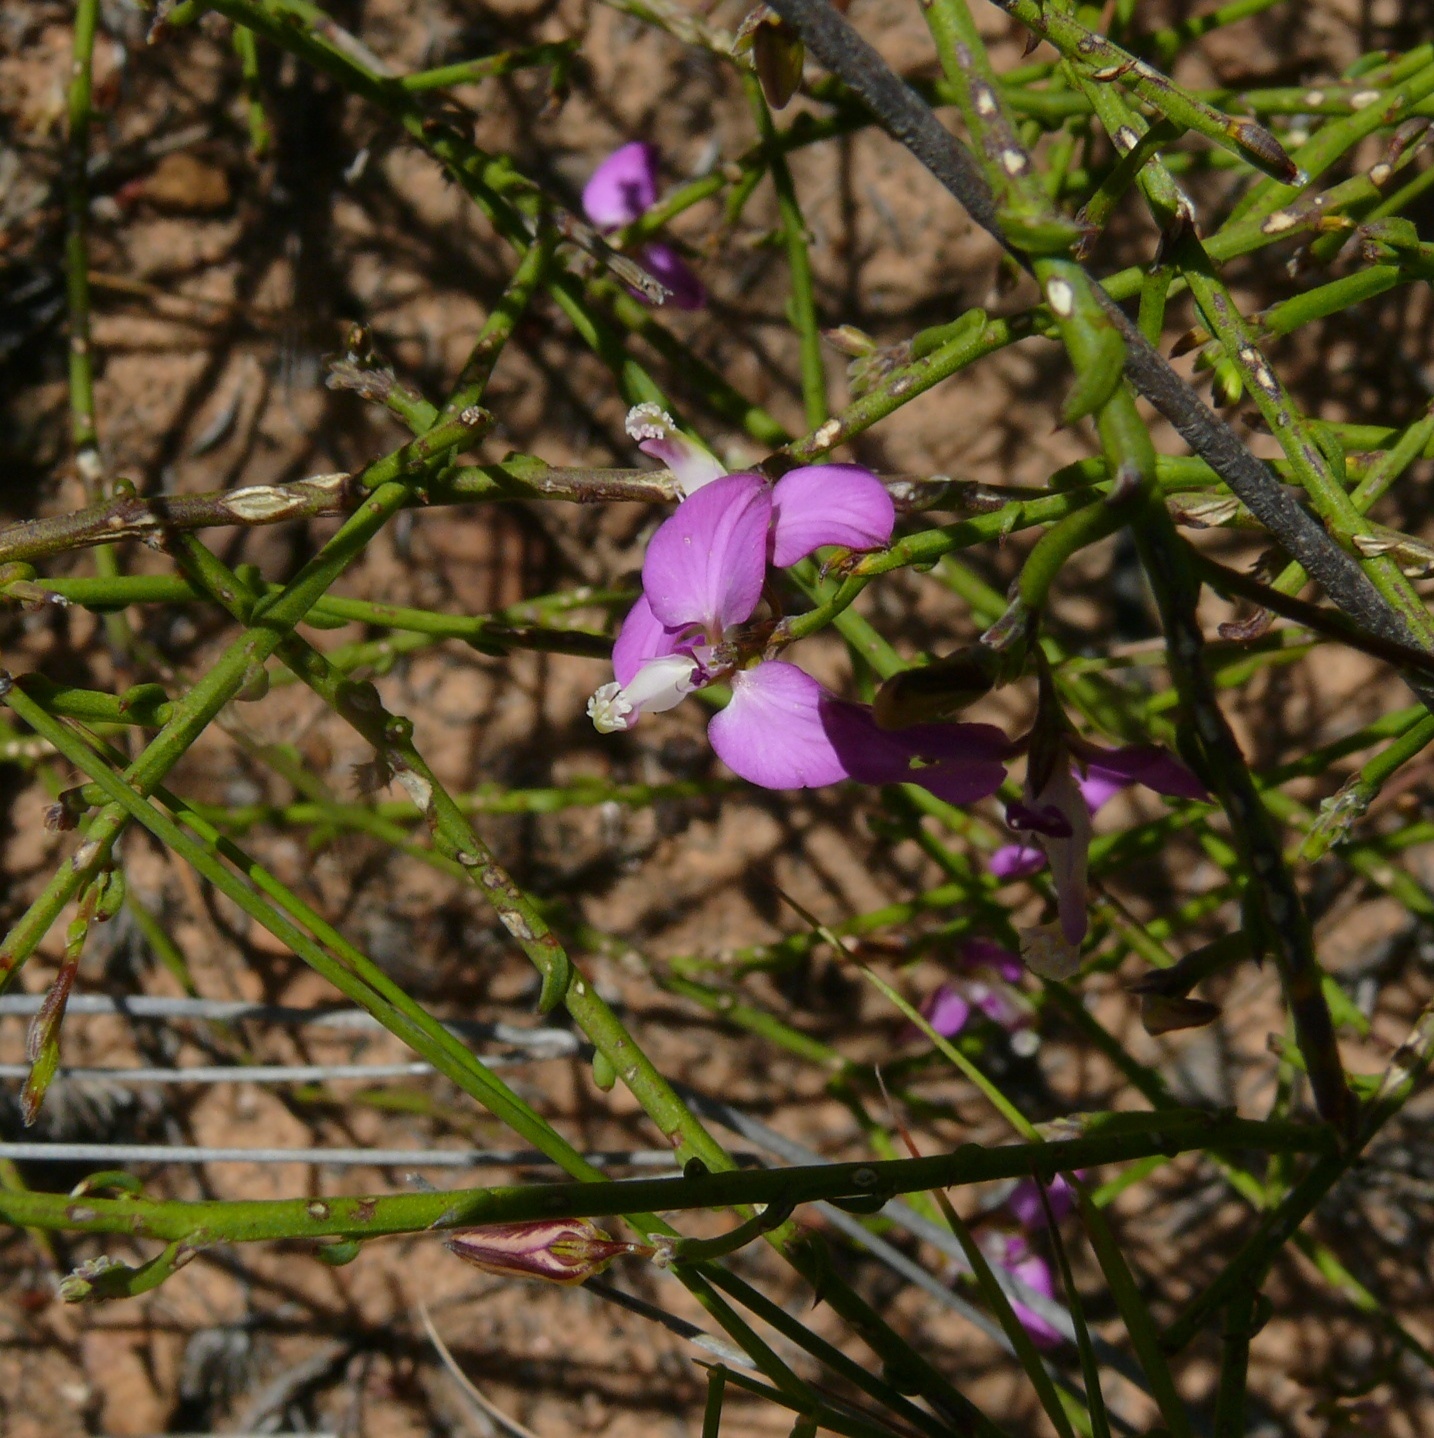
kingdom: Plantae
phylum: Tracheophyta
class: Magnoliopsida
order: Fabales
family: Polygalaceae
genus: Polygala
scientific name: Polygala brachyphylla
